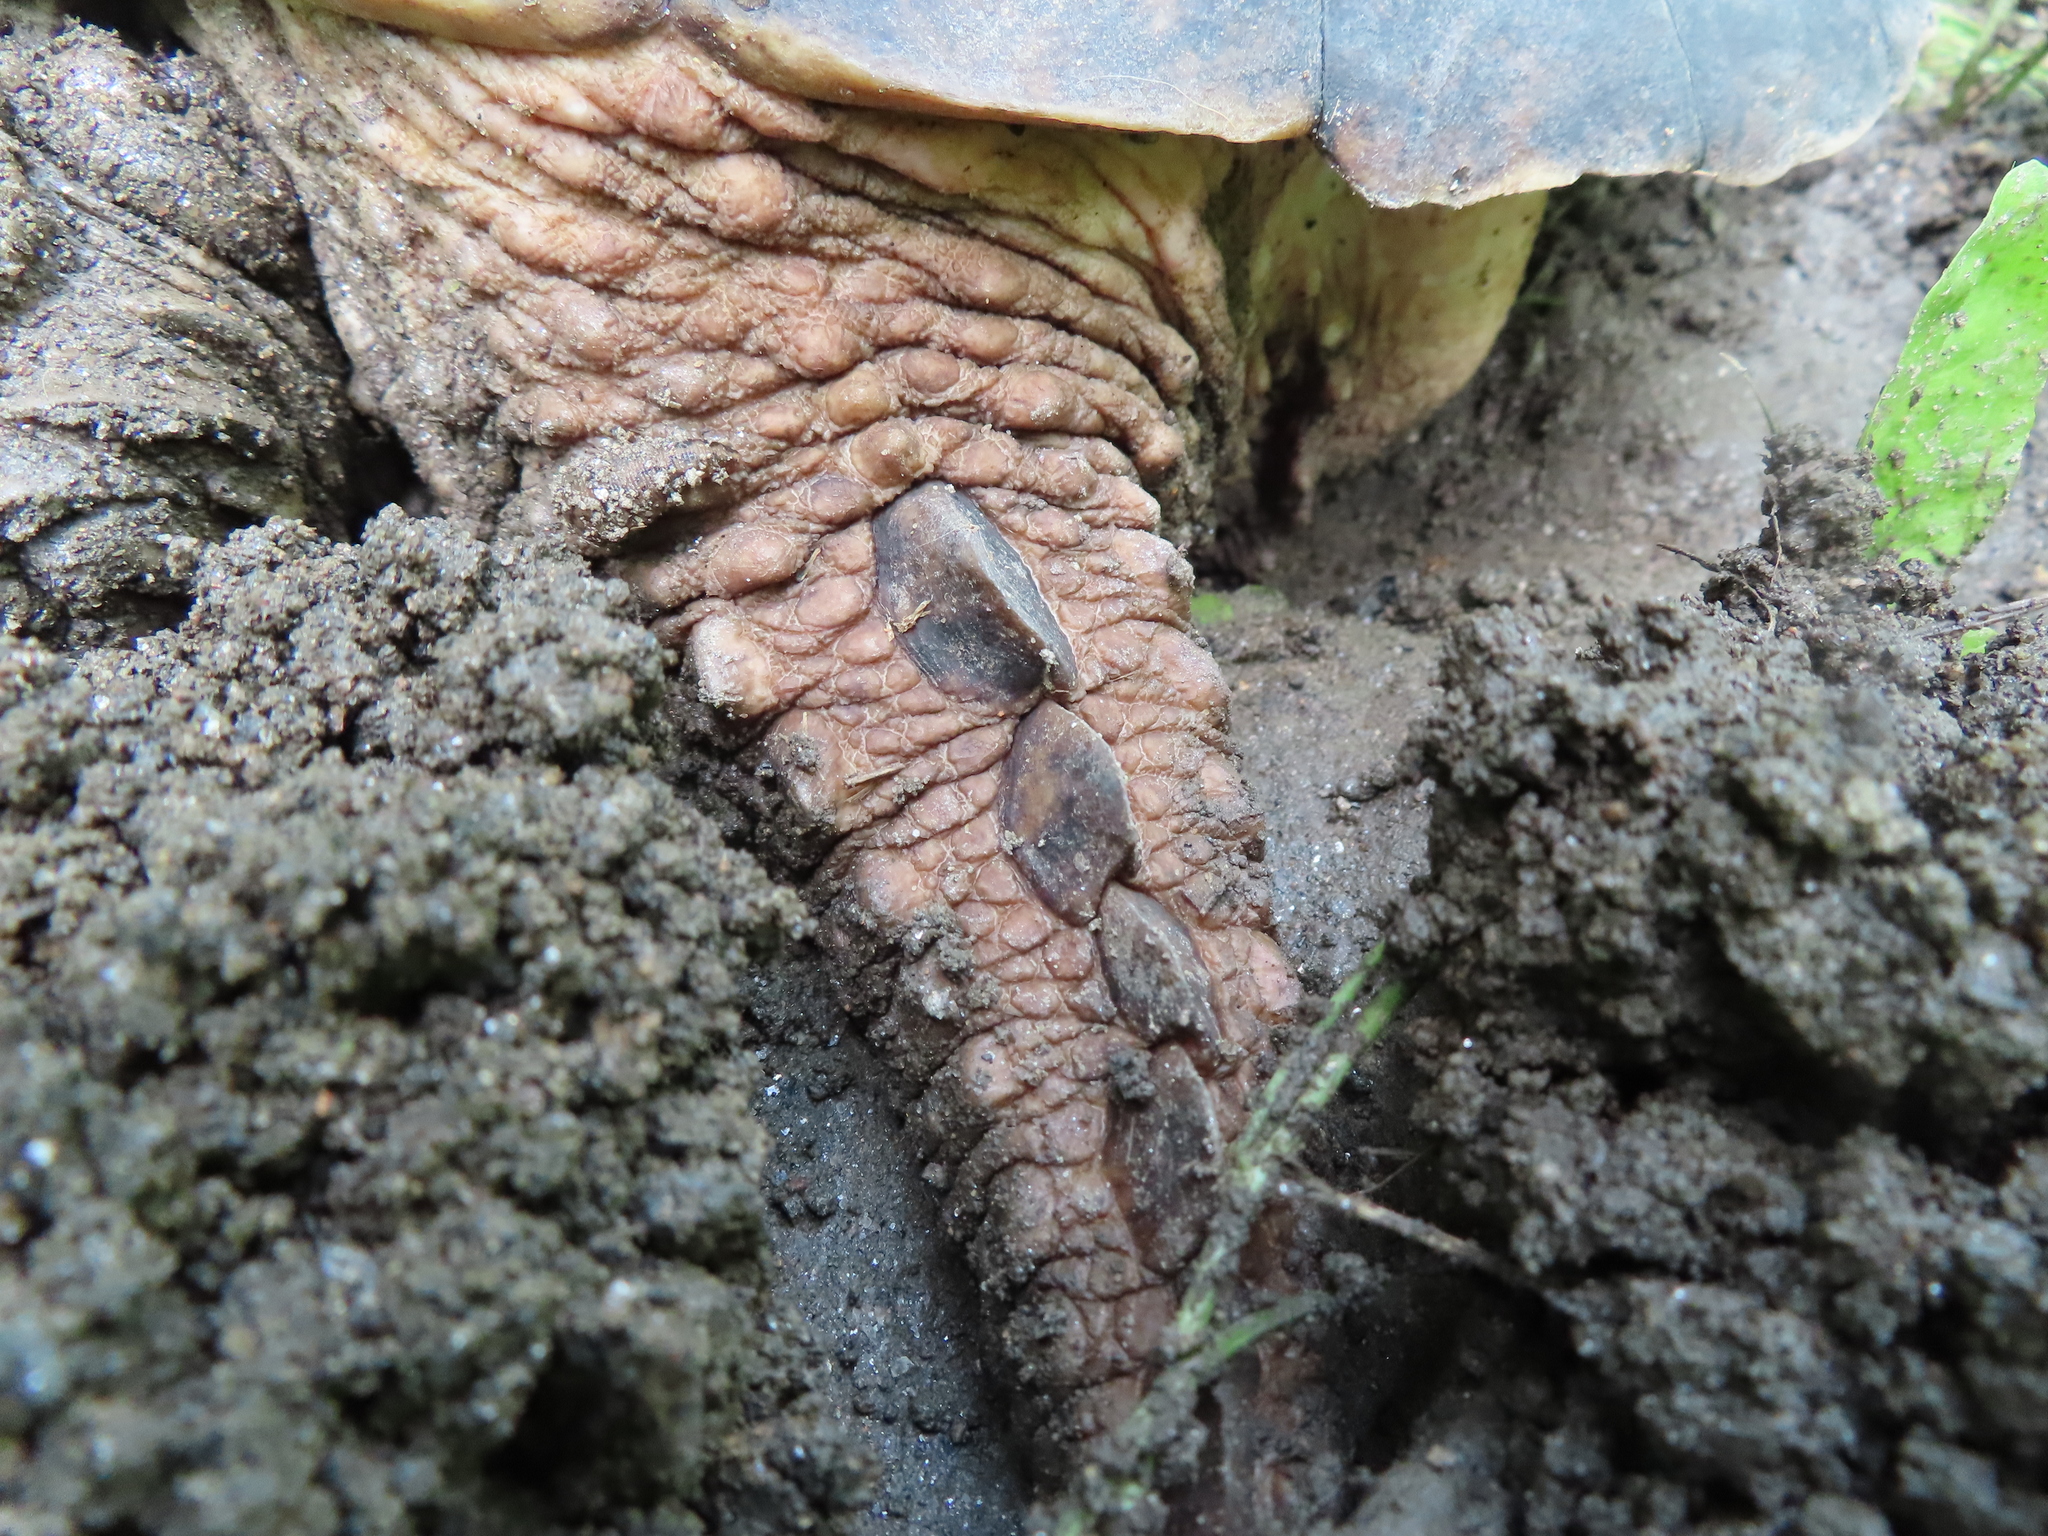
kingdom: Animalia
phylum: Chordata
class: Testudines
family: Chelydridae
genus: Chelydra
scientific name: Chelydra serpentina
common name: Common snapping turtle
